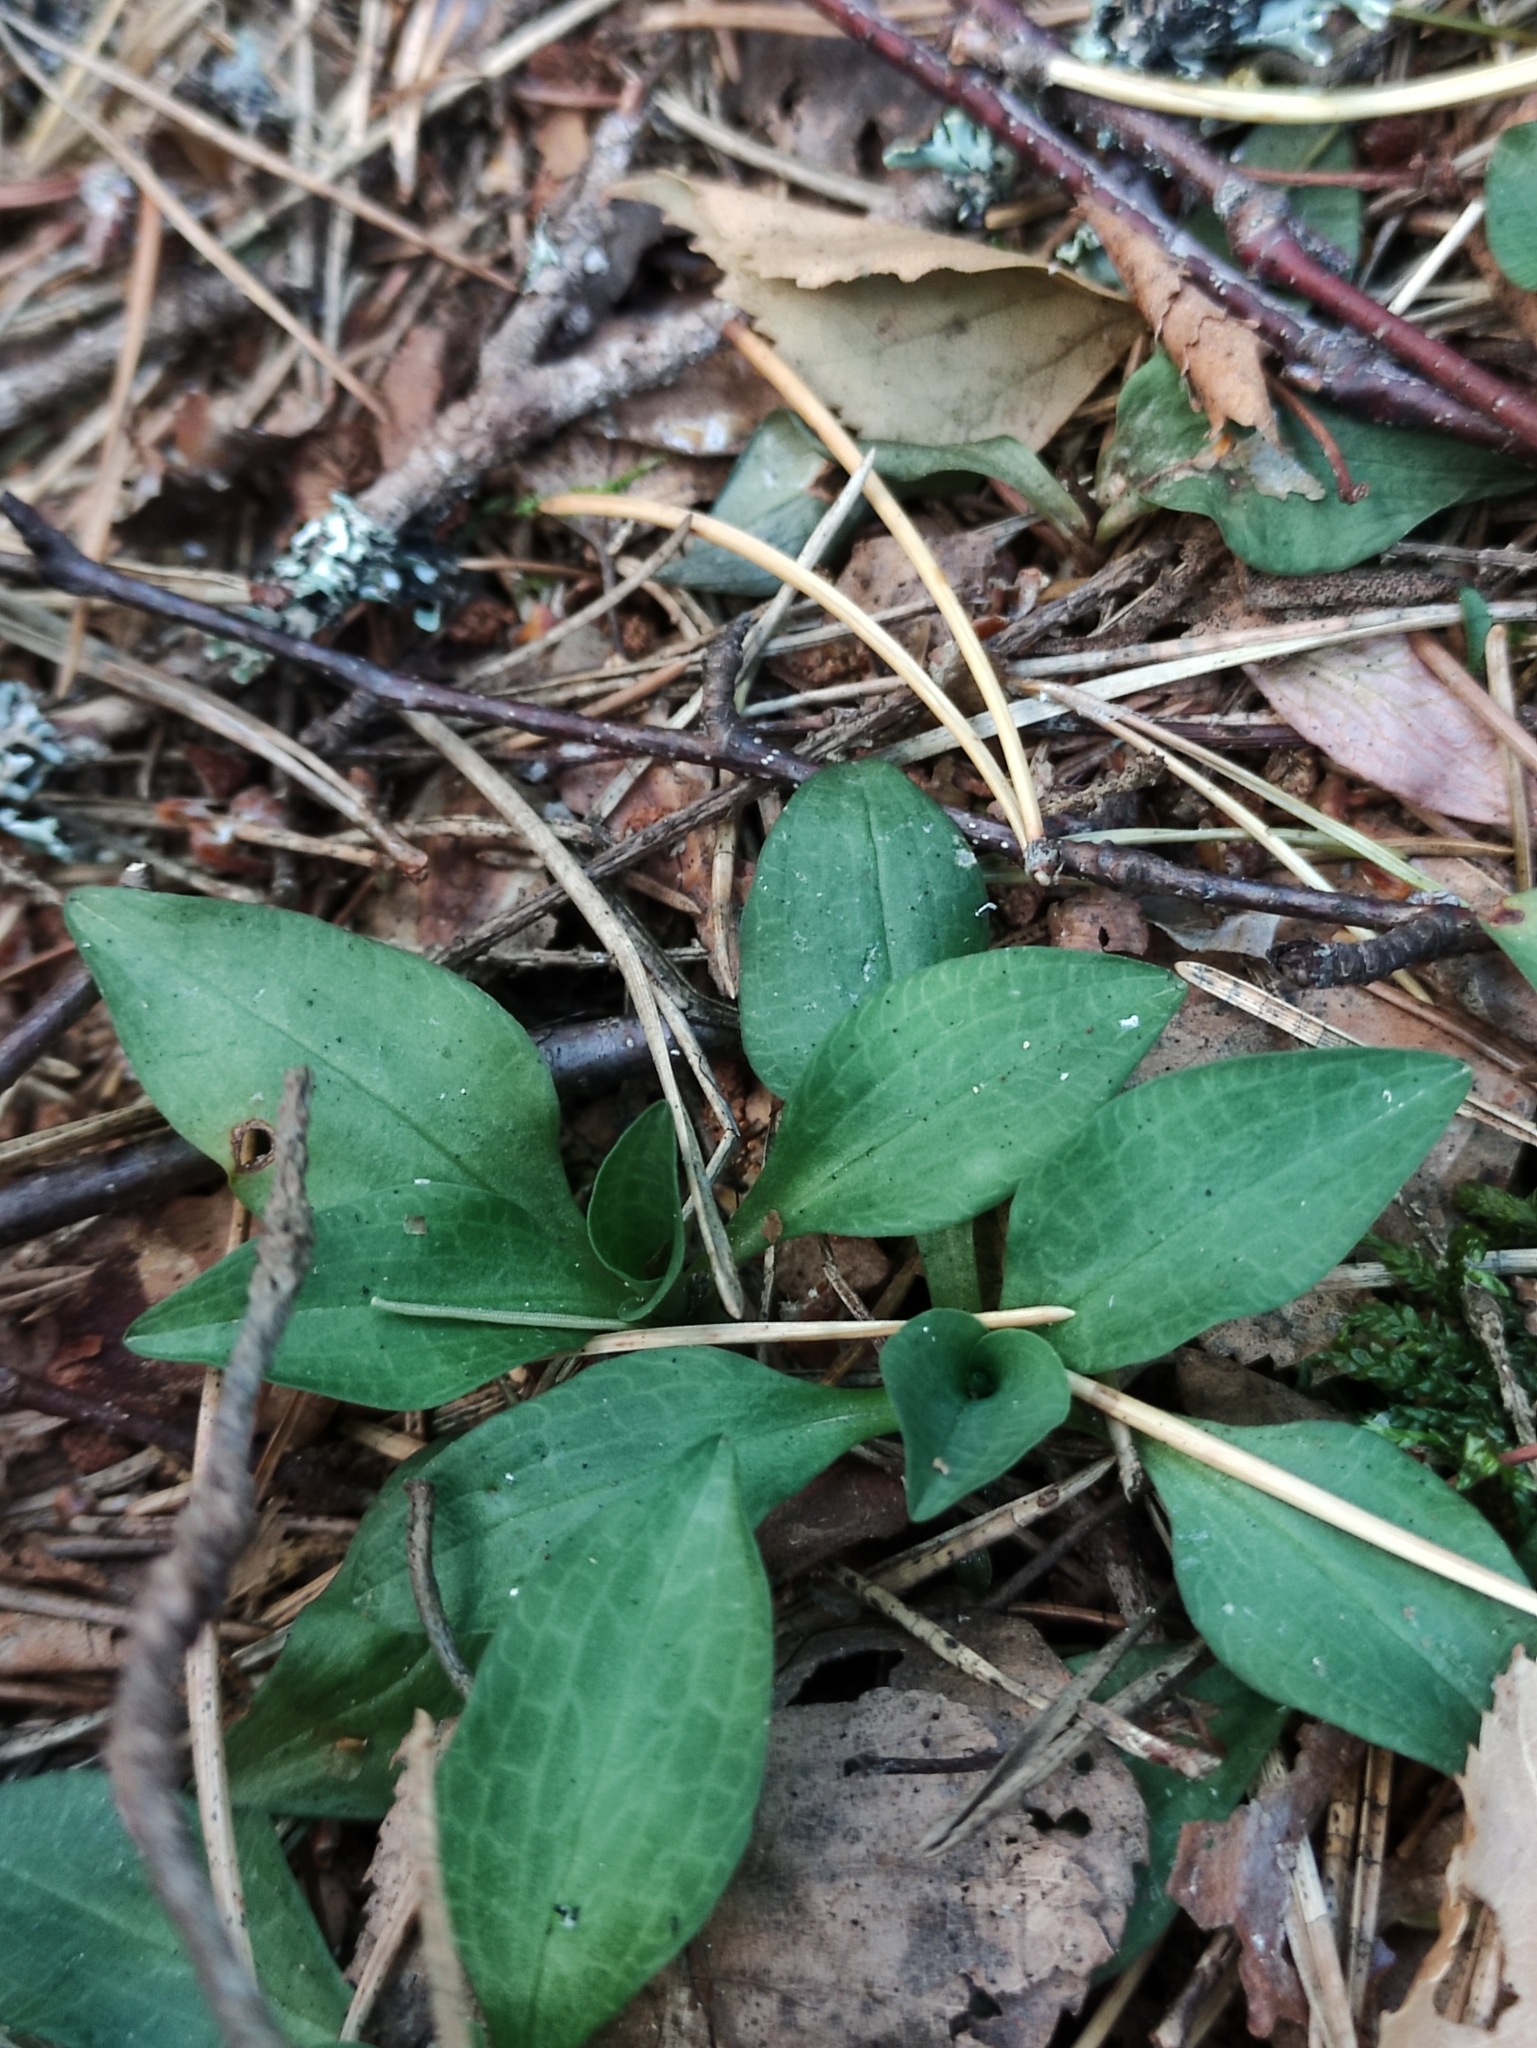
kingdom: Plantae
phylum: Tracheophyta
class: Liliopsida
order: Asparagales
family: Orchidaceae
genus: Goodyera
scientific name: Goodyera repens
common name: Creeping lady's-tresses
